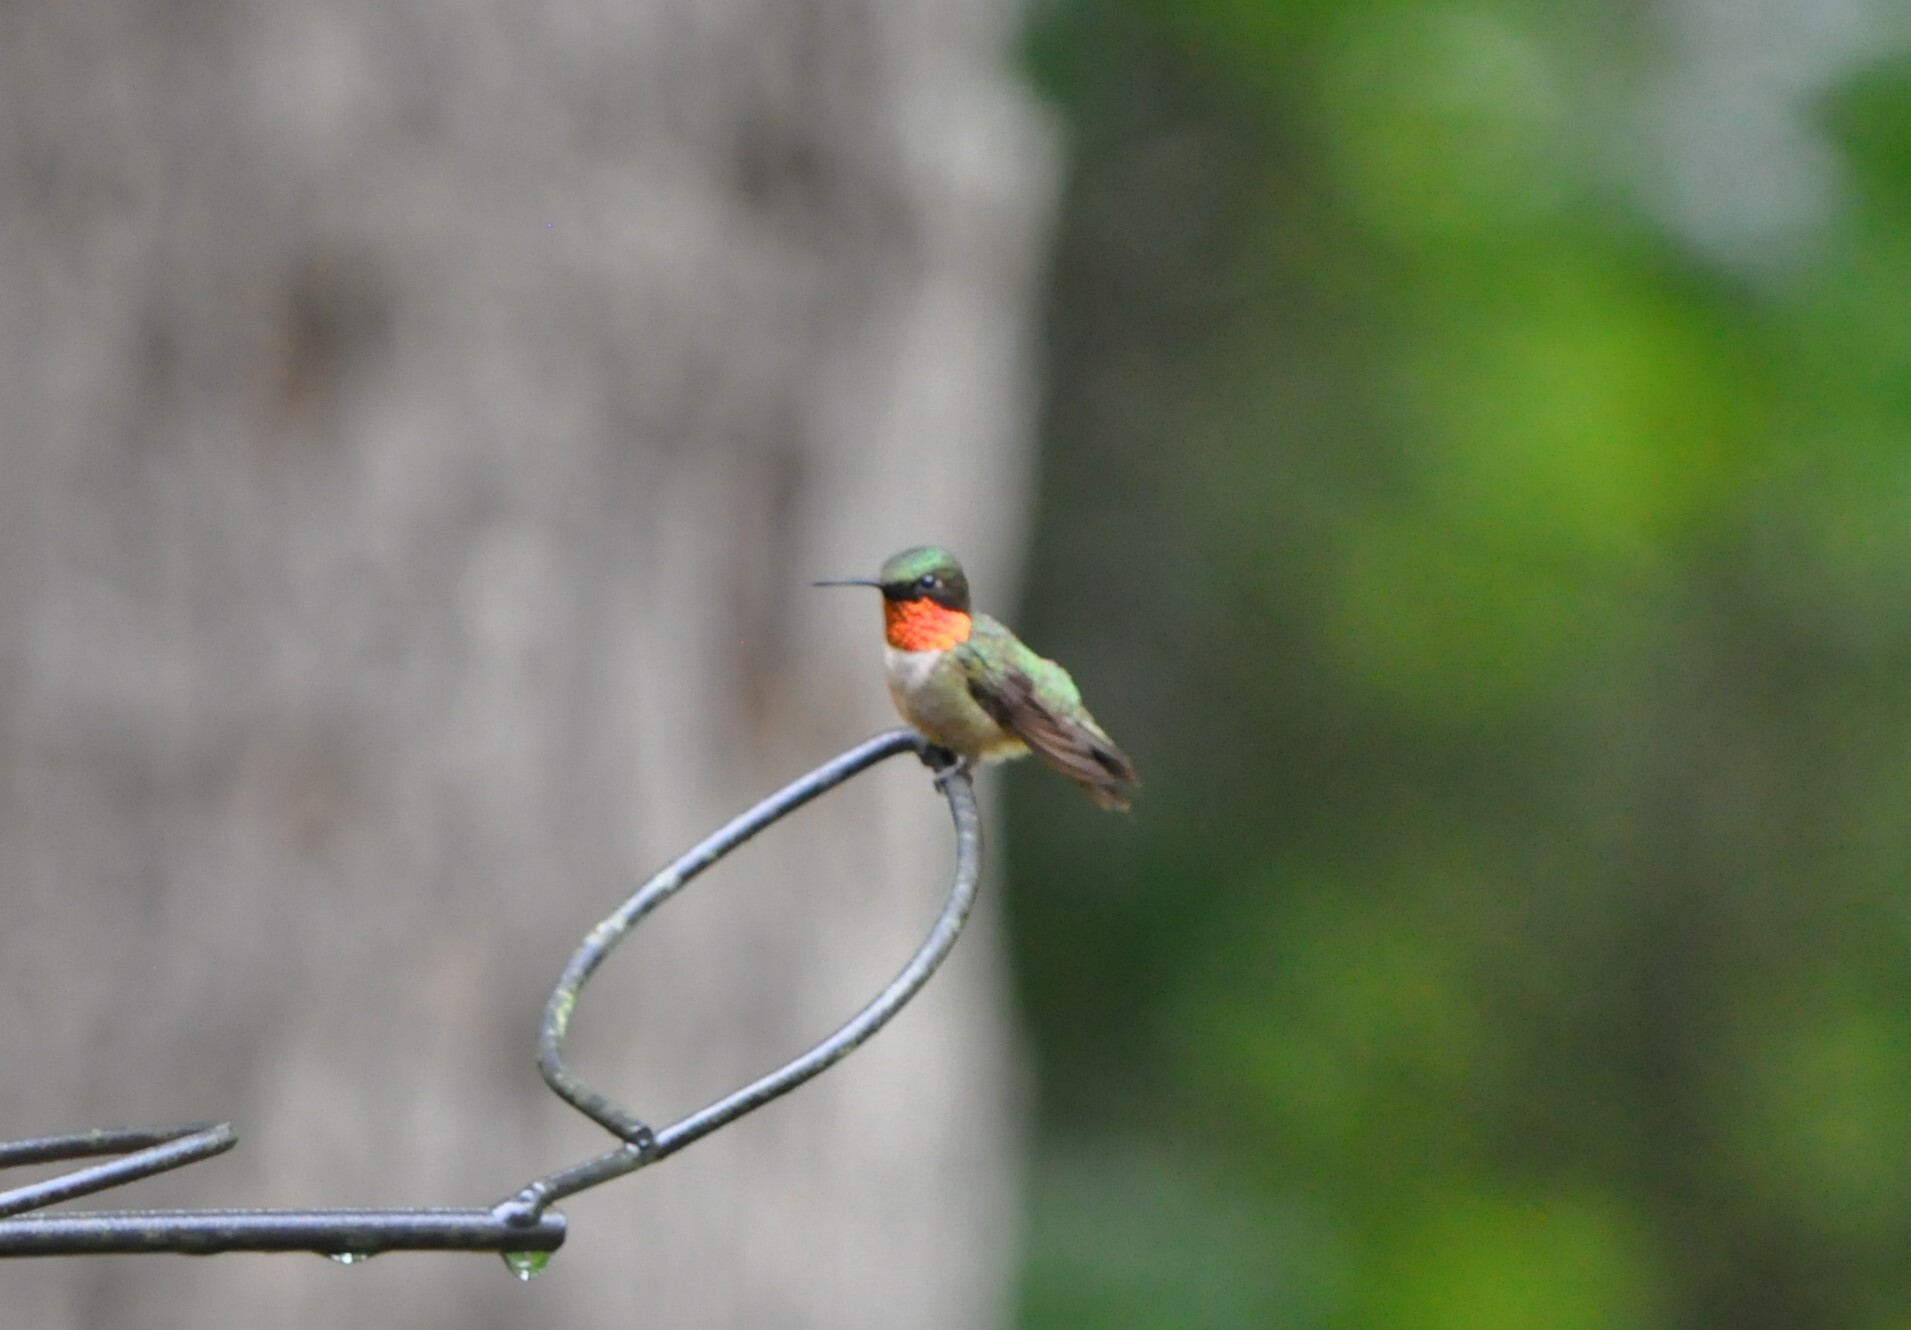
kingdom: Animalia
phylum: Chordata
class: Aves
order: Apodiformes
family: Trochilidae
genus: Archilochus
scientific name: Archilochus colubris
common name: Ruby-throated hummingbird
